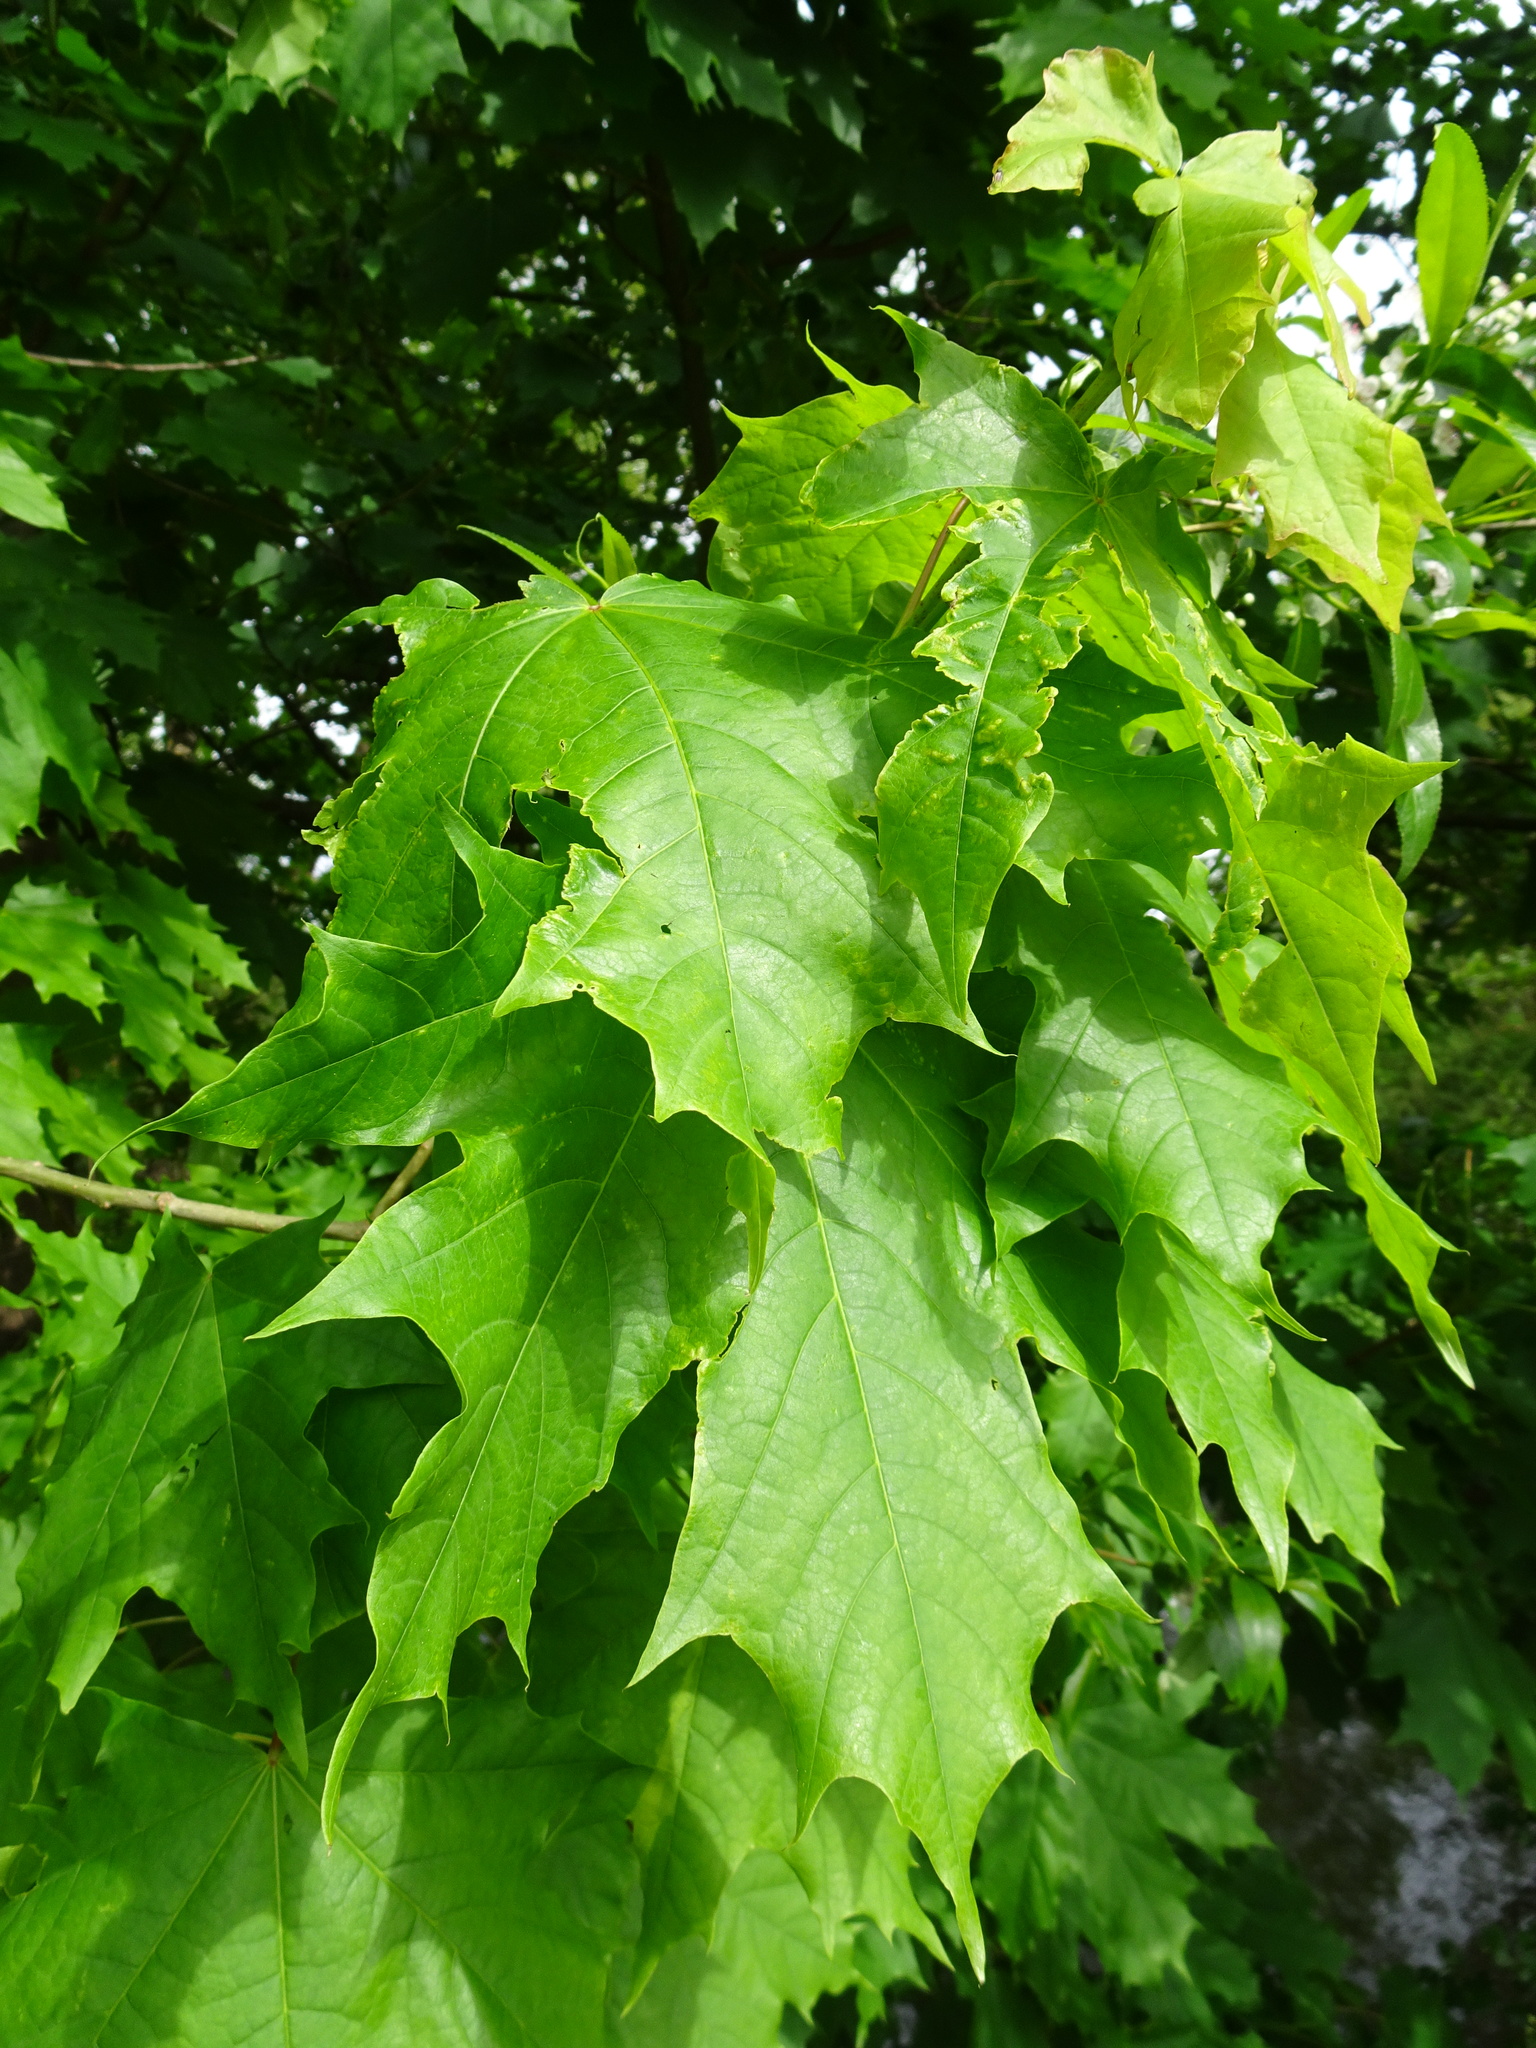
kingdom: Plantae
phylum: Tracheophyta
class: Magnoliopsida
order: Sapindales
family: Sapindaceae
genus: Acer
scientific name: Acer platanoides
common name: Norway maple
